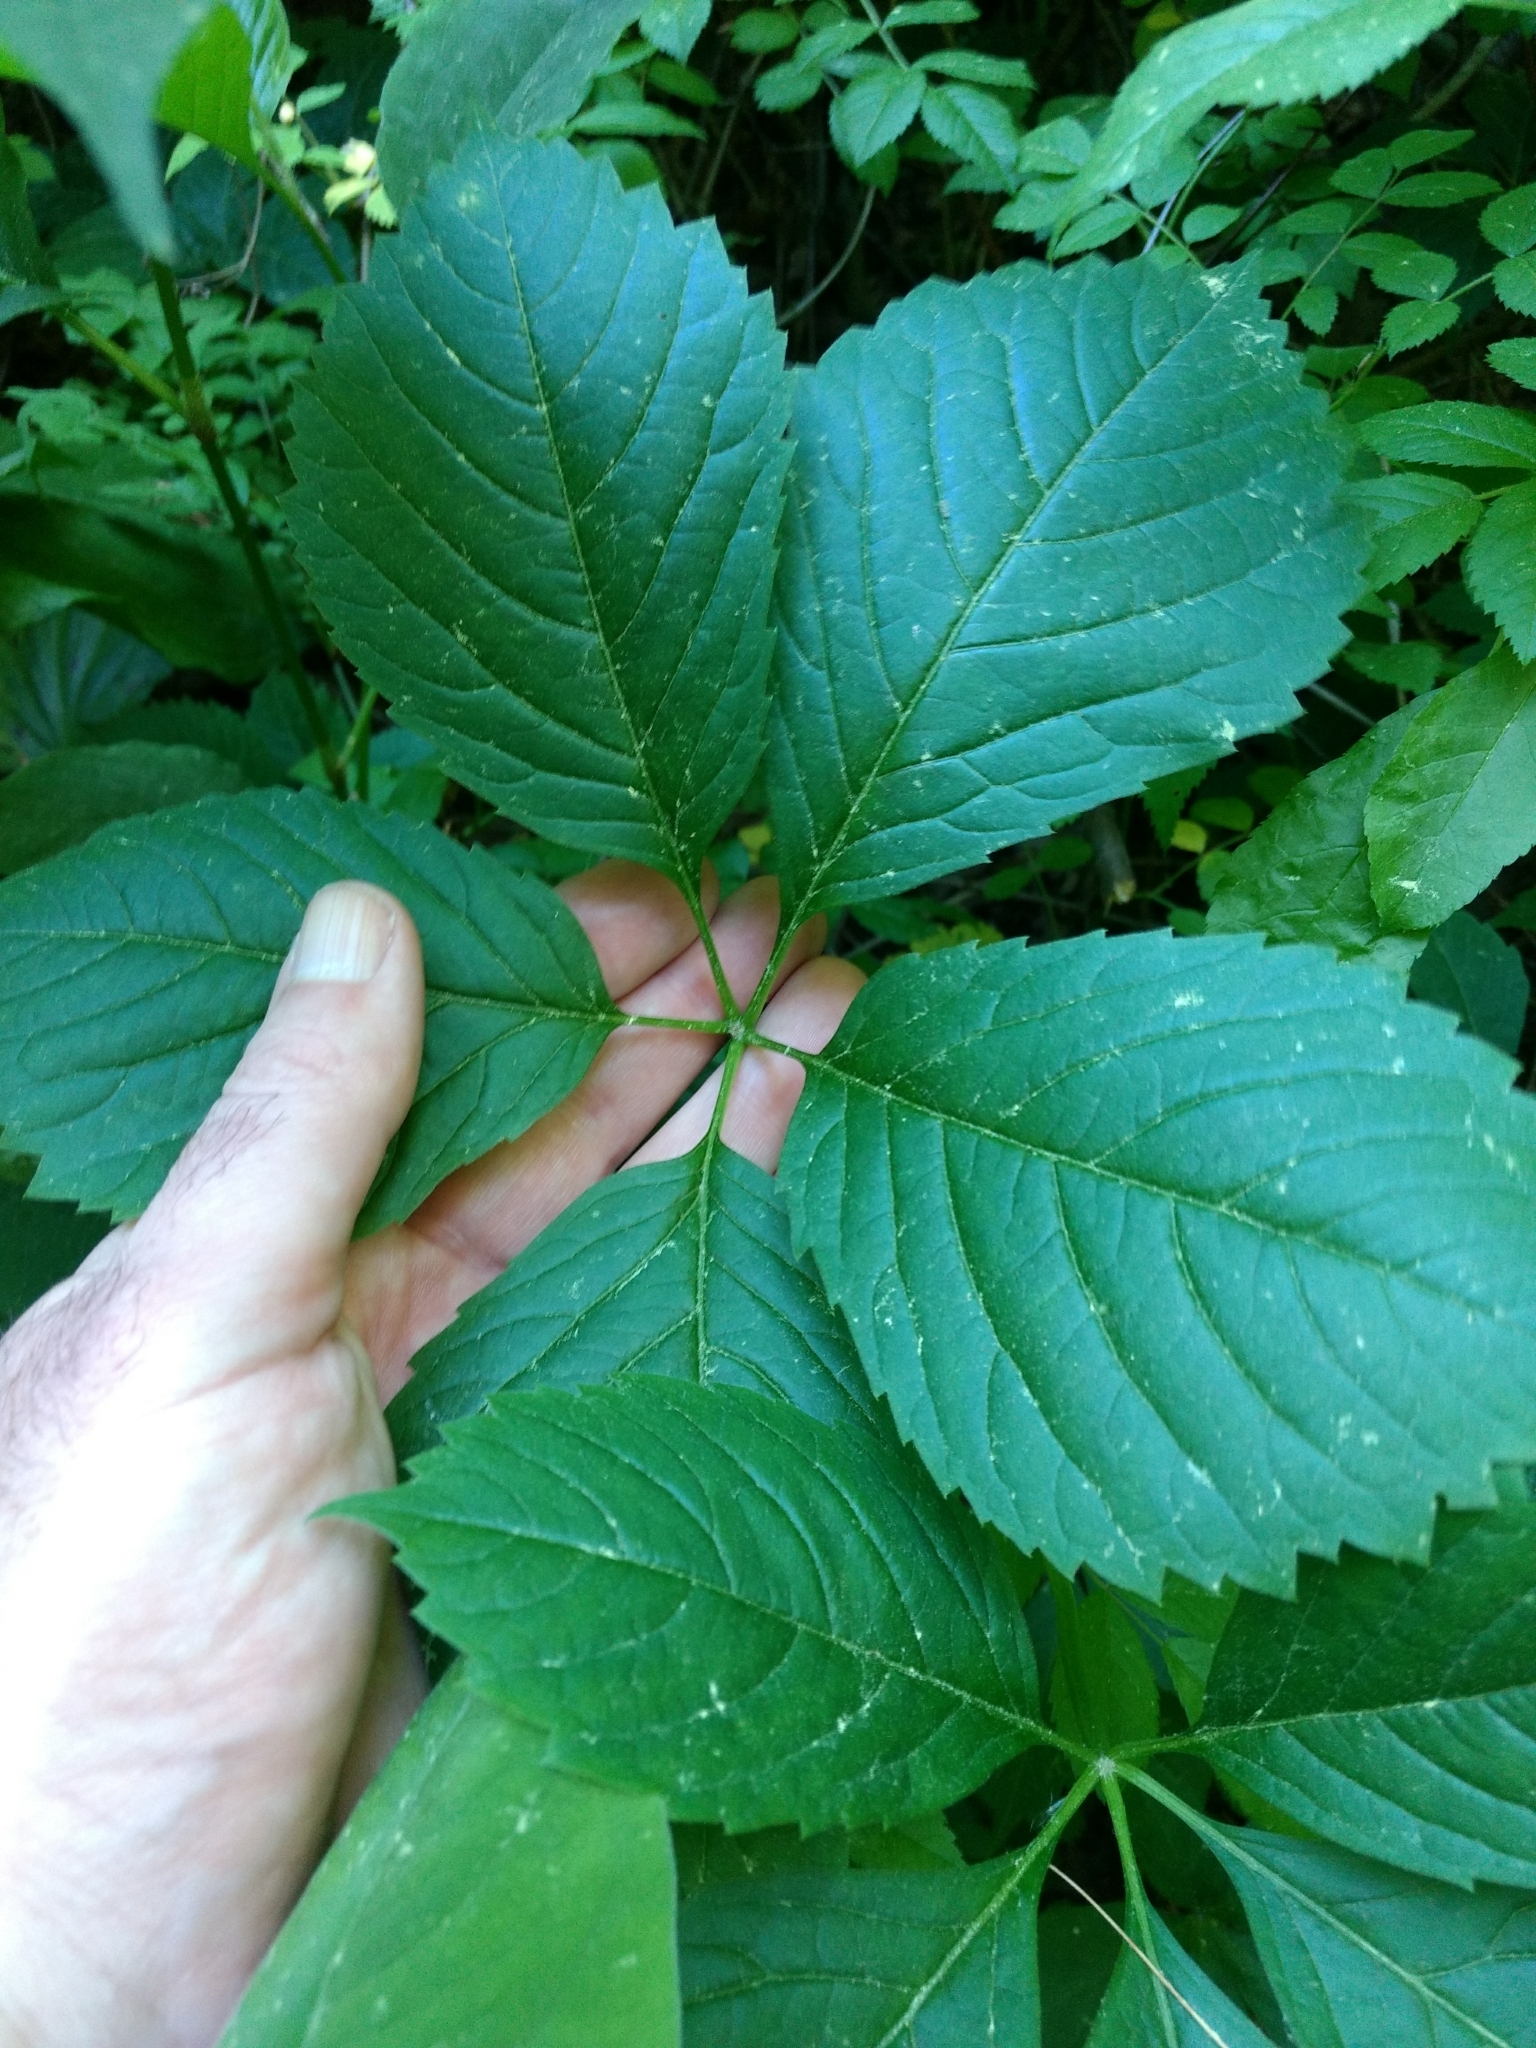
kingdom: Plantae
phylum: Tracheophyta
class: Magnoliopsida
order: Vitales
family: Vitaceae
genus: Parthenocissus
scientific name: Parthenocissus inserta
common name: False virginia-creeper
